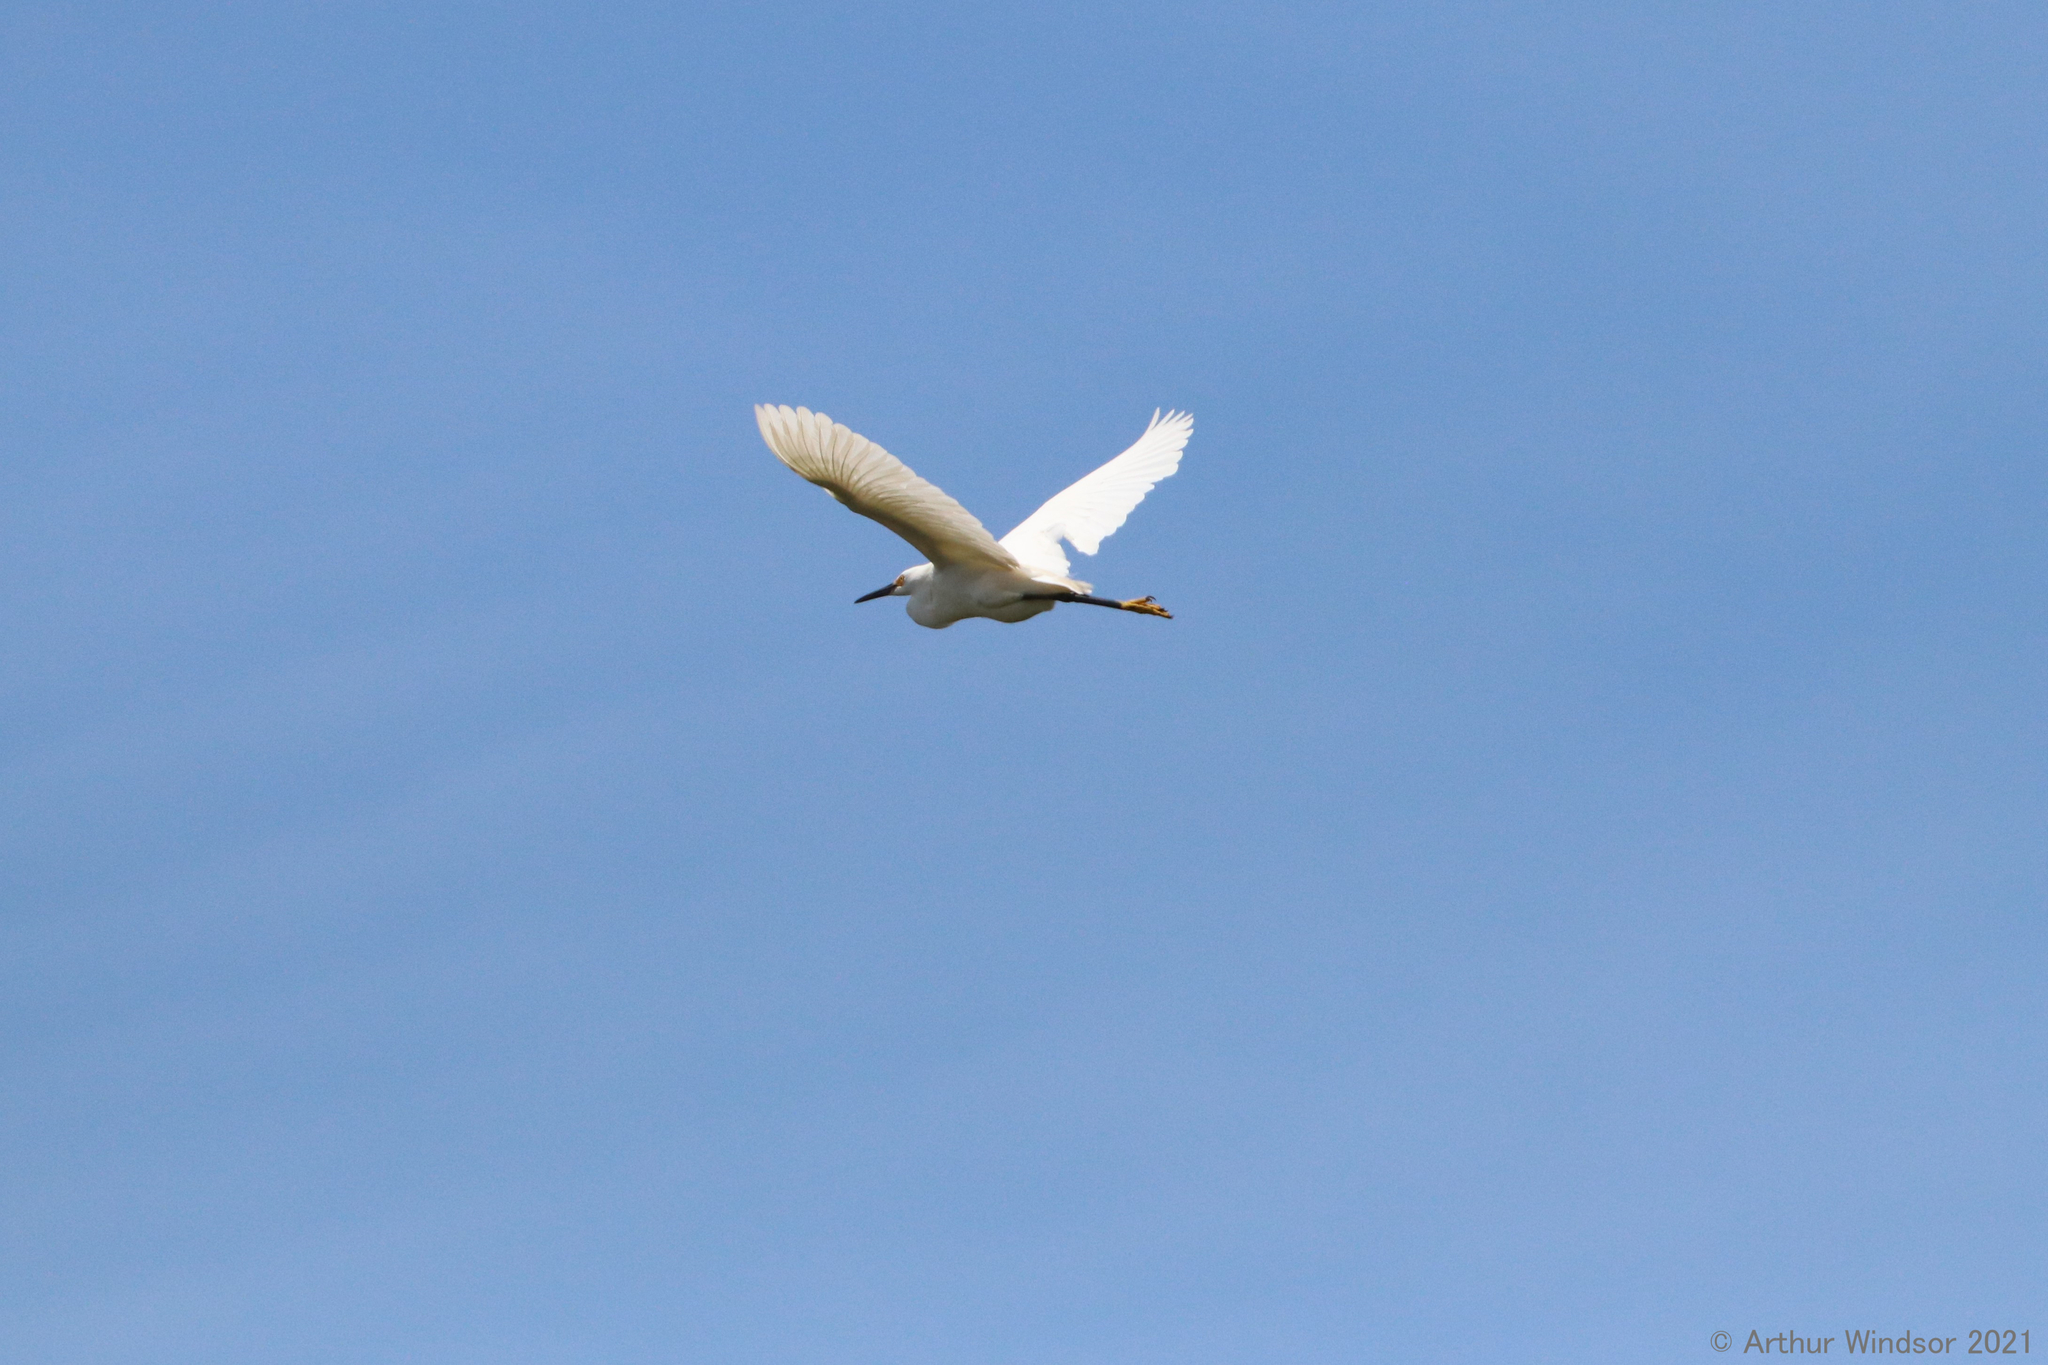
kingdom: Animalia
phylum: Chordata
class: Aves
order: Pelecaniformes
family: Ardeidae
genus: Egretta
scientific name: Egretta thula
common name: Snowy egret
